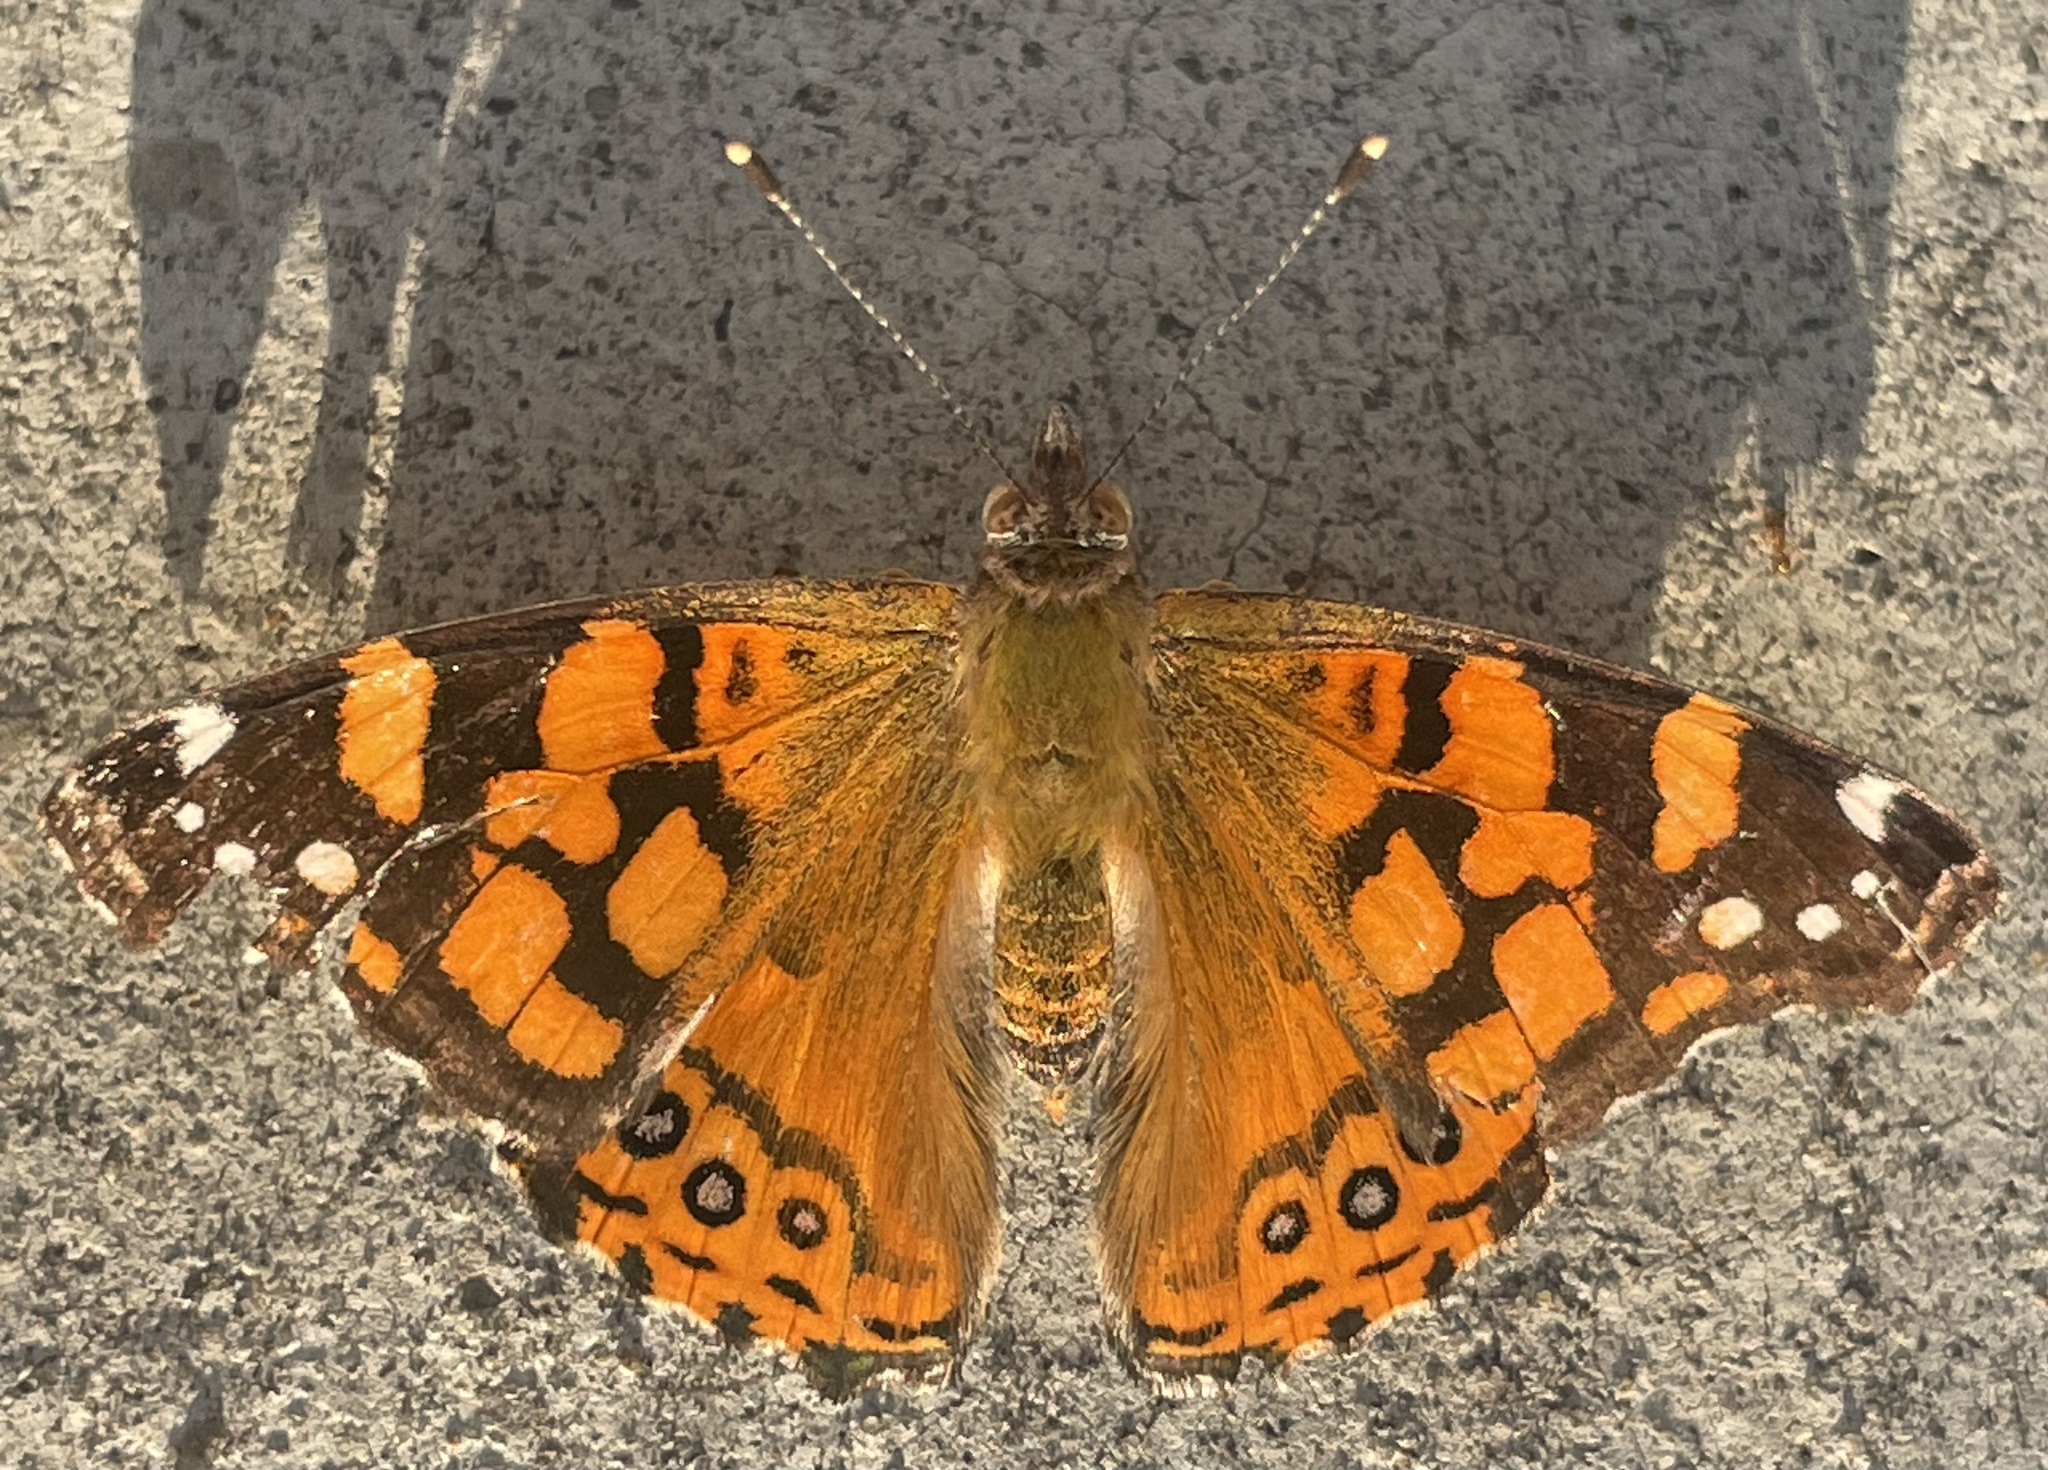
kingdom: Animalia
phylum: Arthropoda
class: Insecta
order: Lepidoptera
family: Nymphalidae
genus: Vanessa
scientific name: Vanessa annabella
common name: West coast lady
